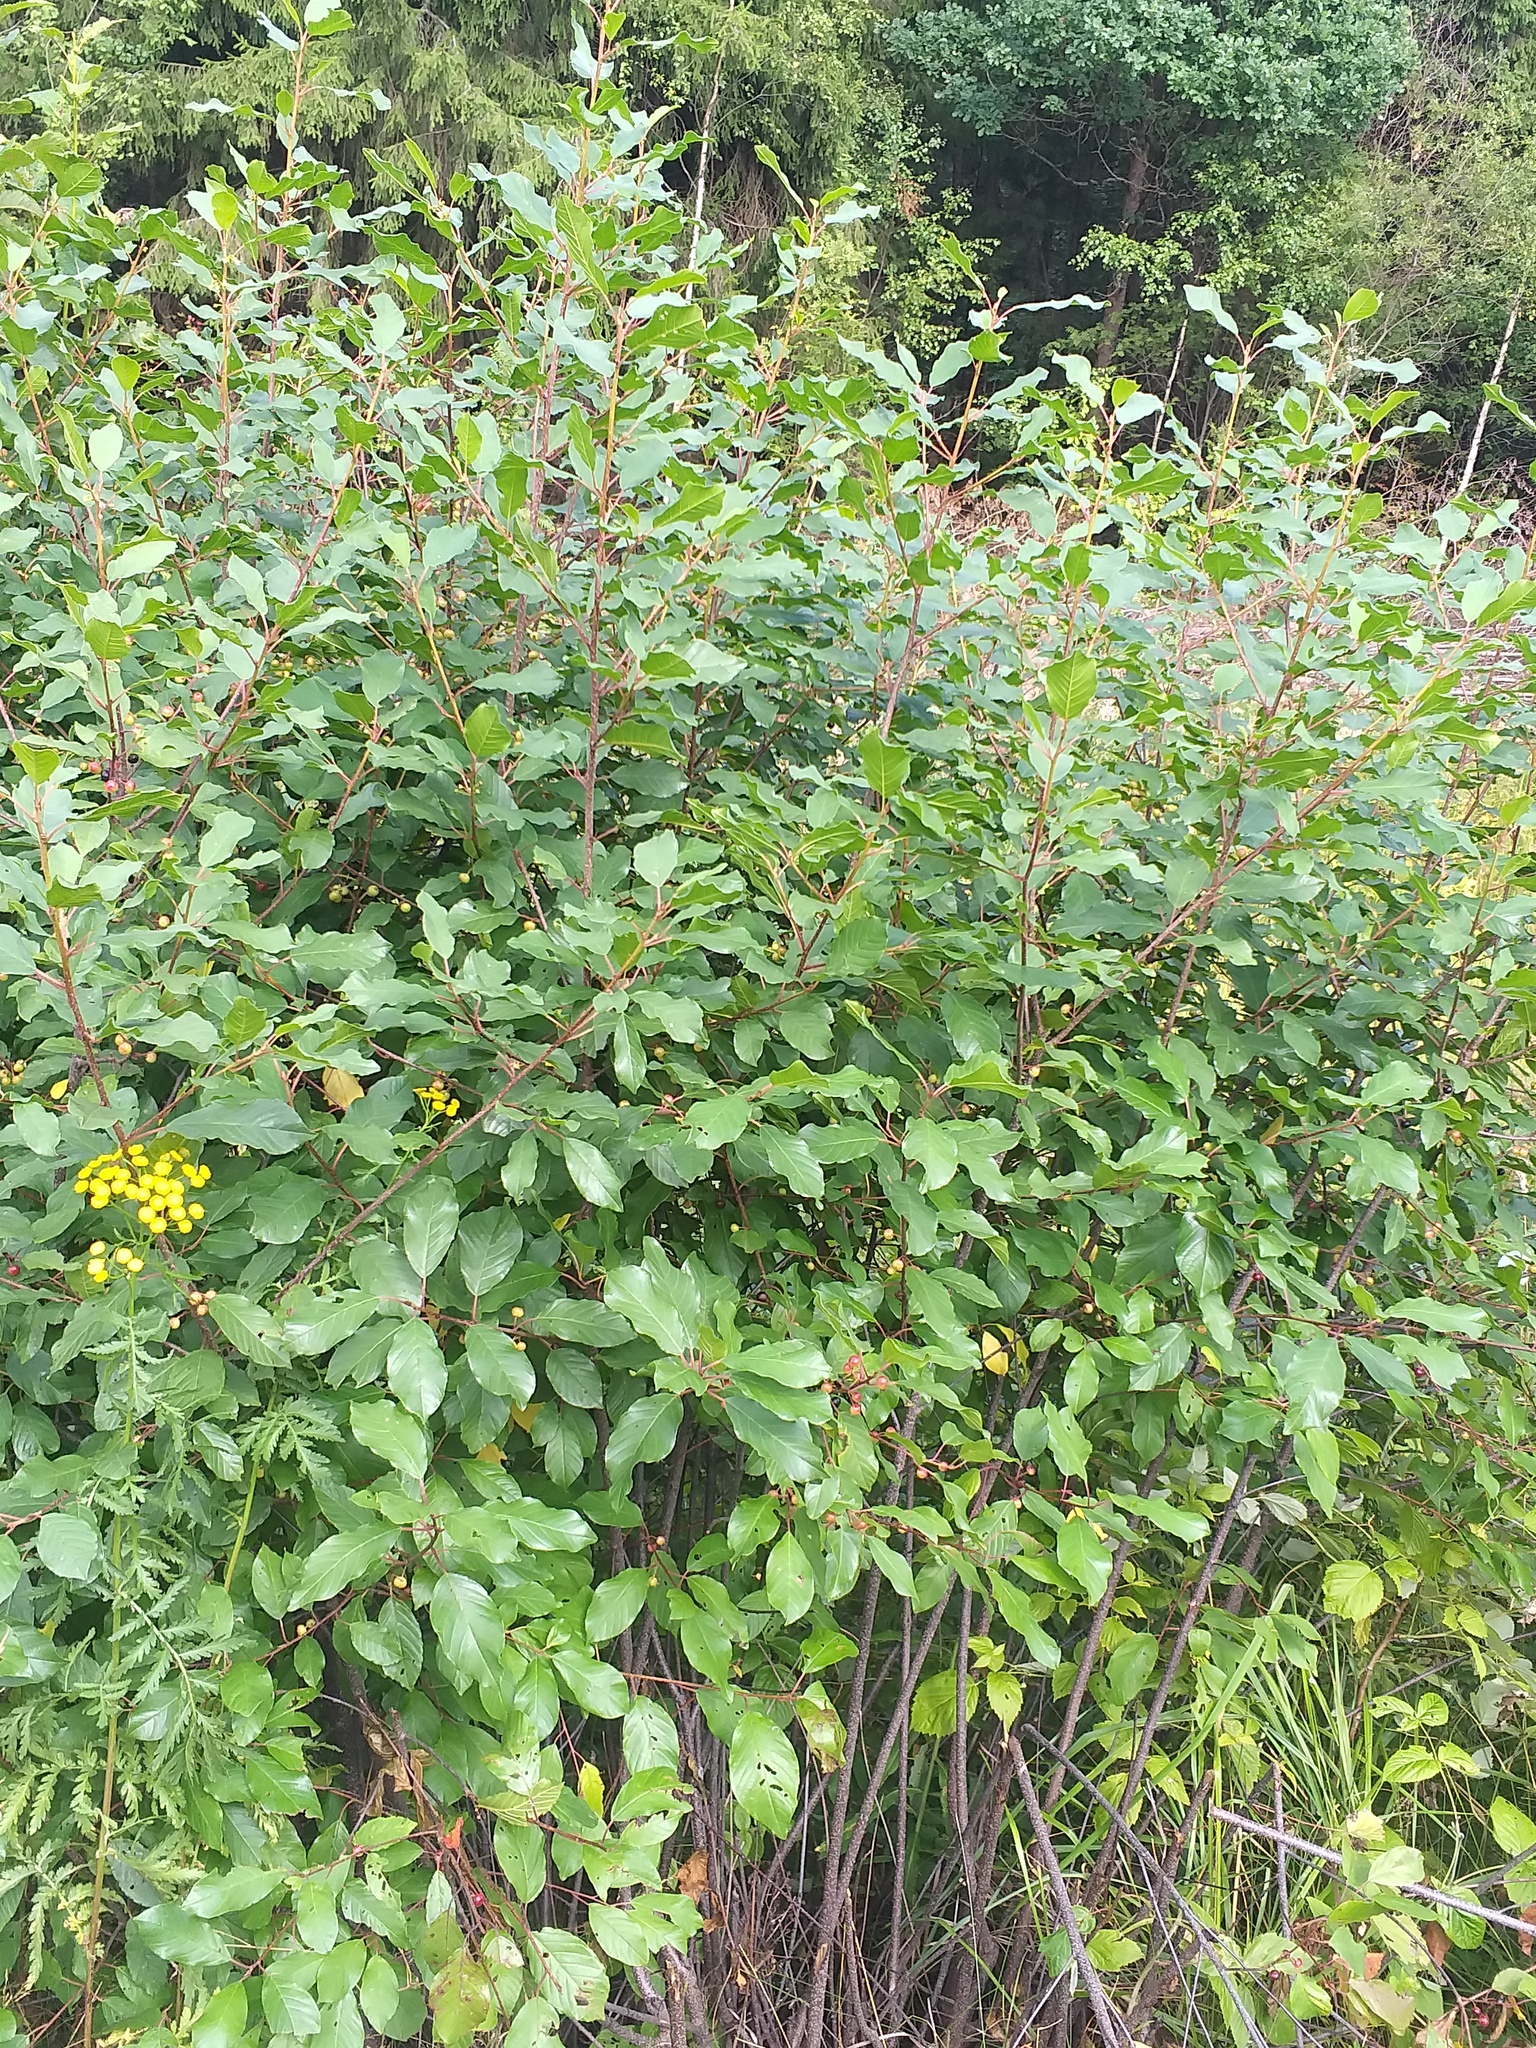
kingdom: Plantae
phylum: Tracheophyta
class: Magnoliopsida
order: Rosales
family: Rhamnaceae
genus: Frangula
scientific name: Frangula alnus
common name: Alder buckthorn
